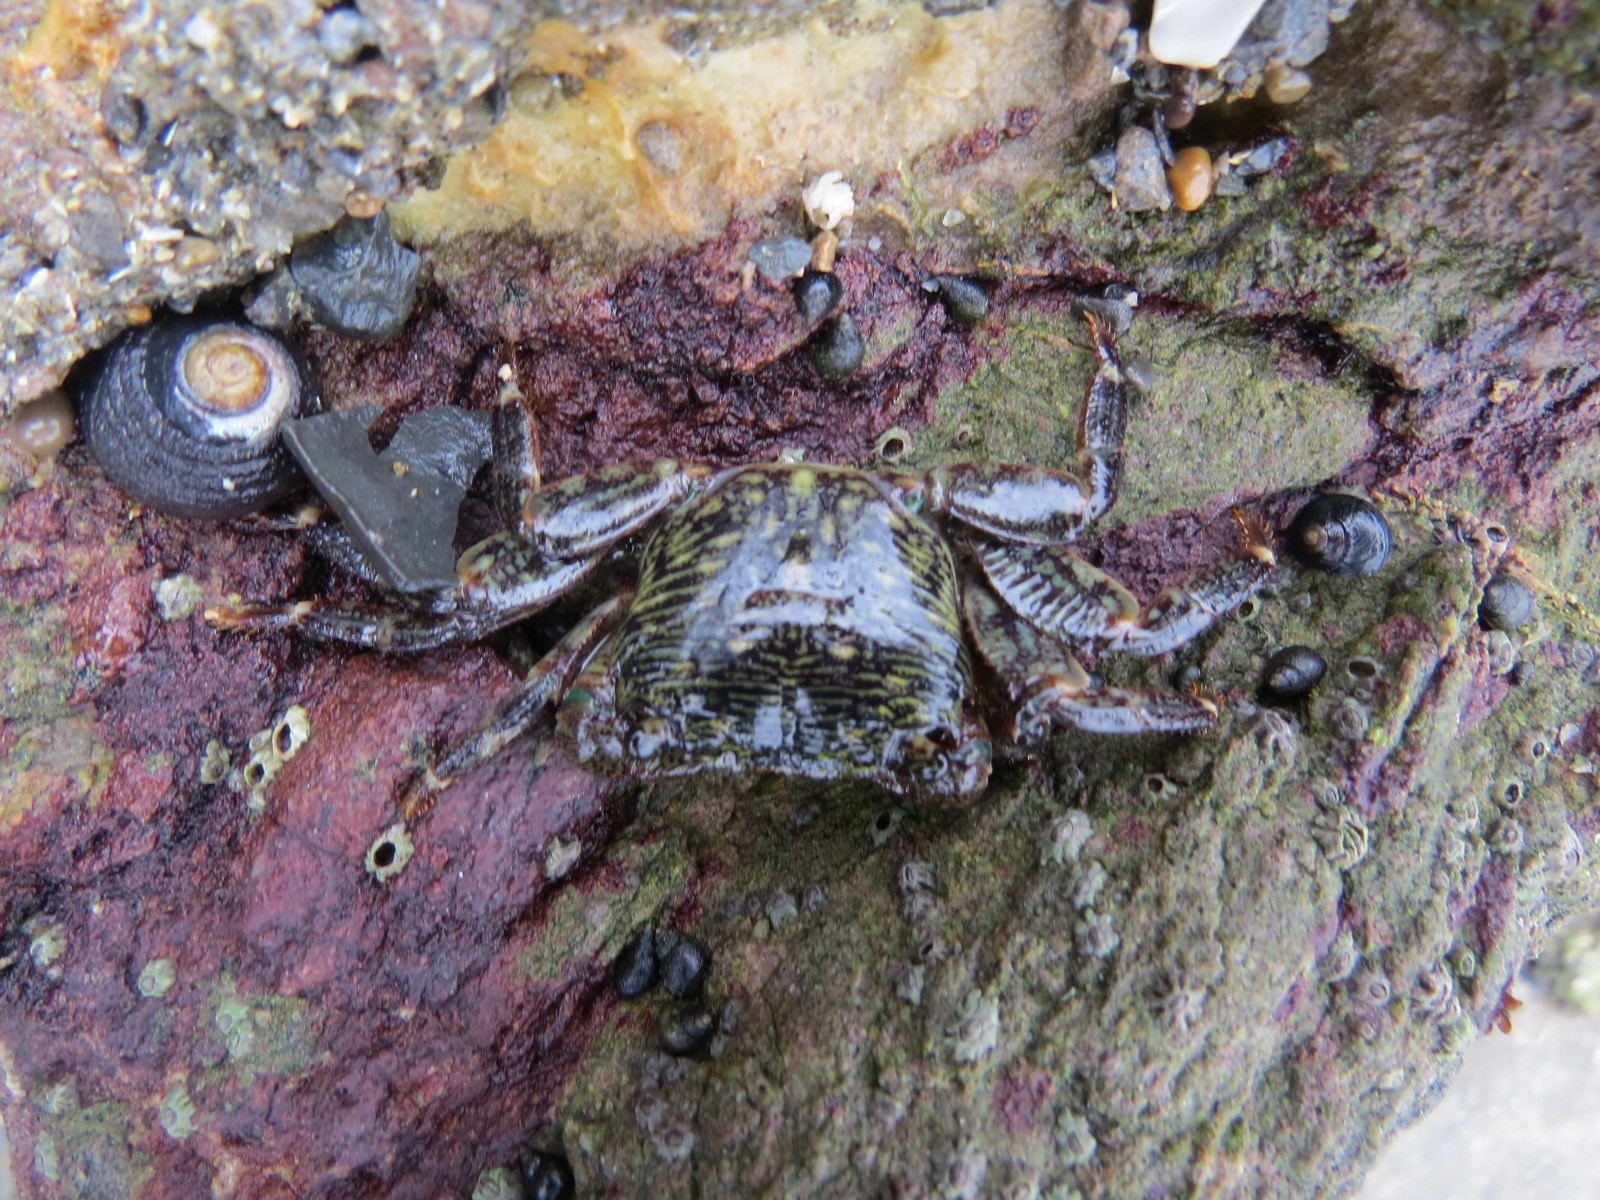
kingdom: Animalia
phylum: Arthropoda
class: Malacostraca
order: Decapoda
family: Grapsidae
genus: Pachygrapsus
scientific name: Pachygrapsus crassipes
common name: Striped shore crab
